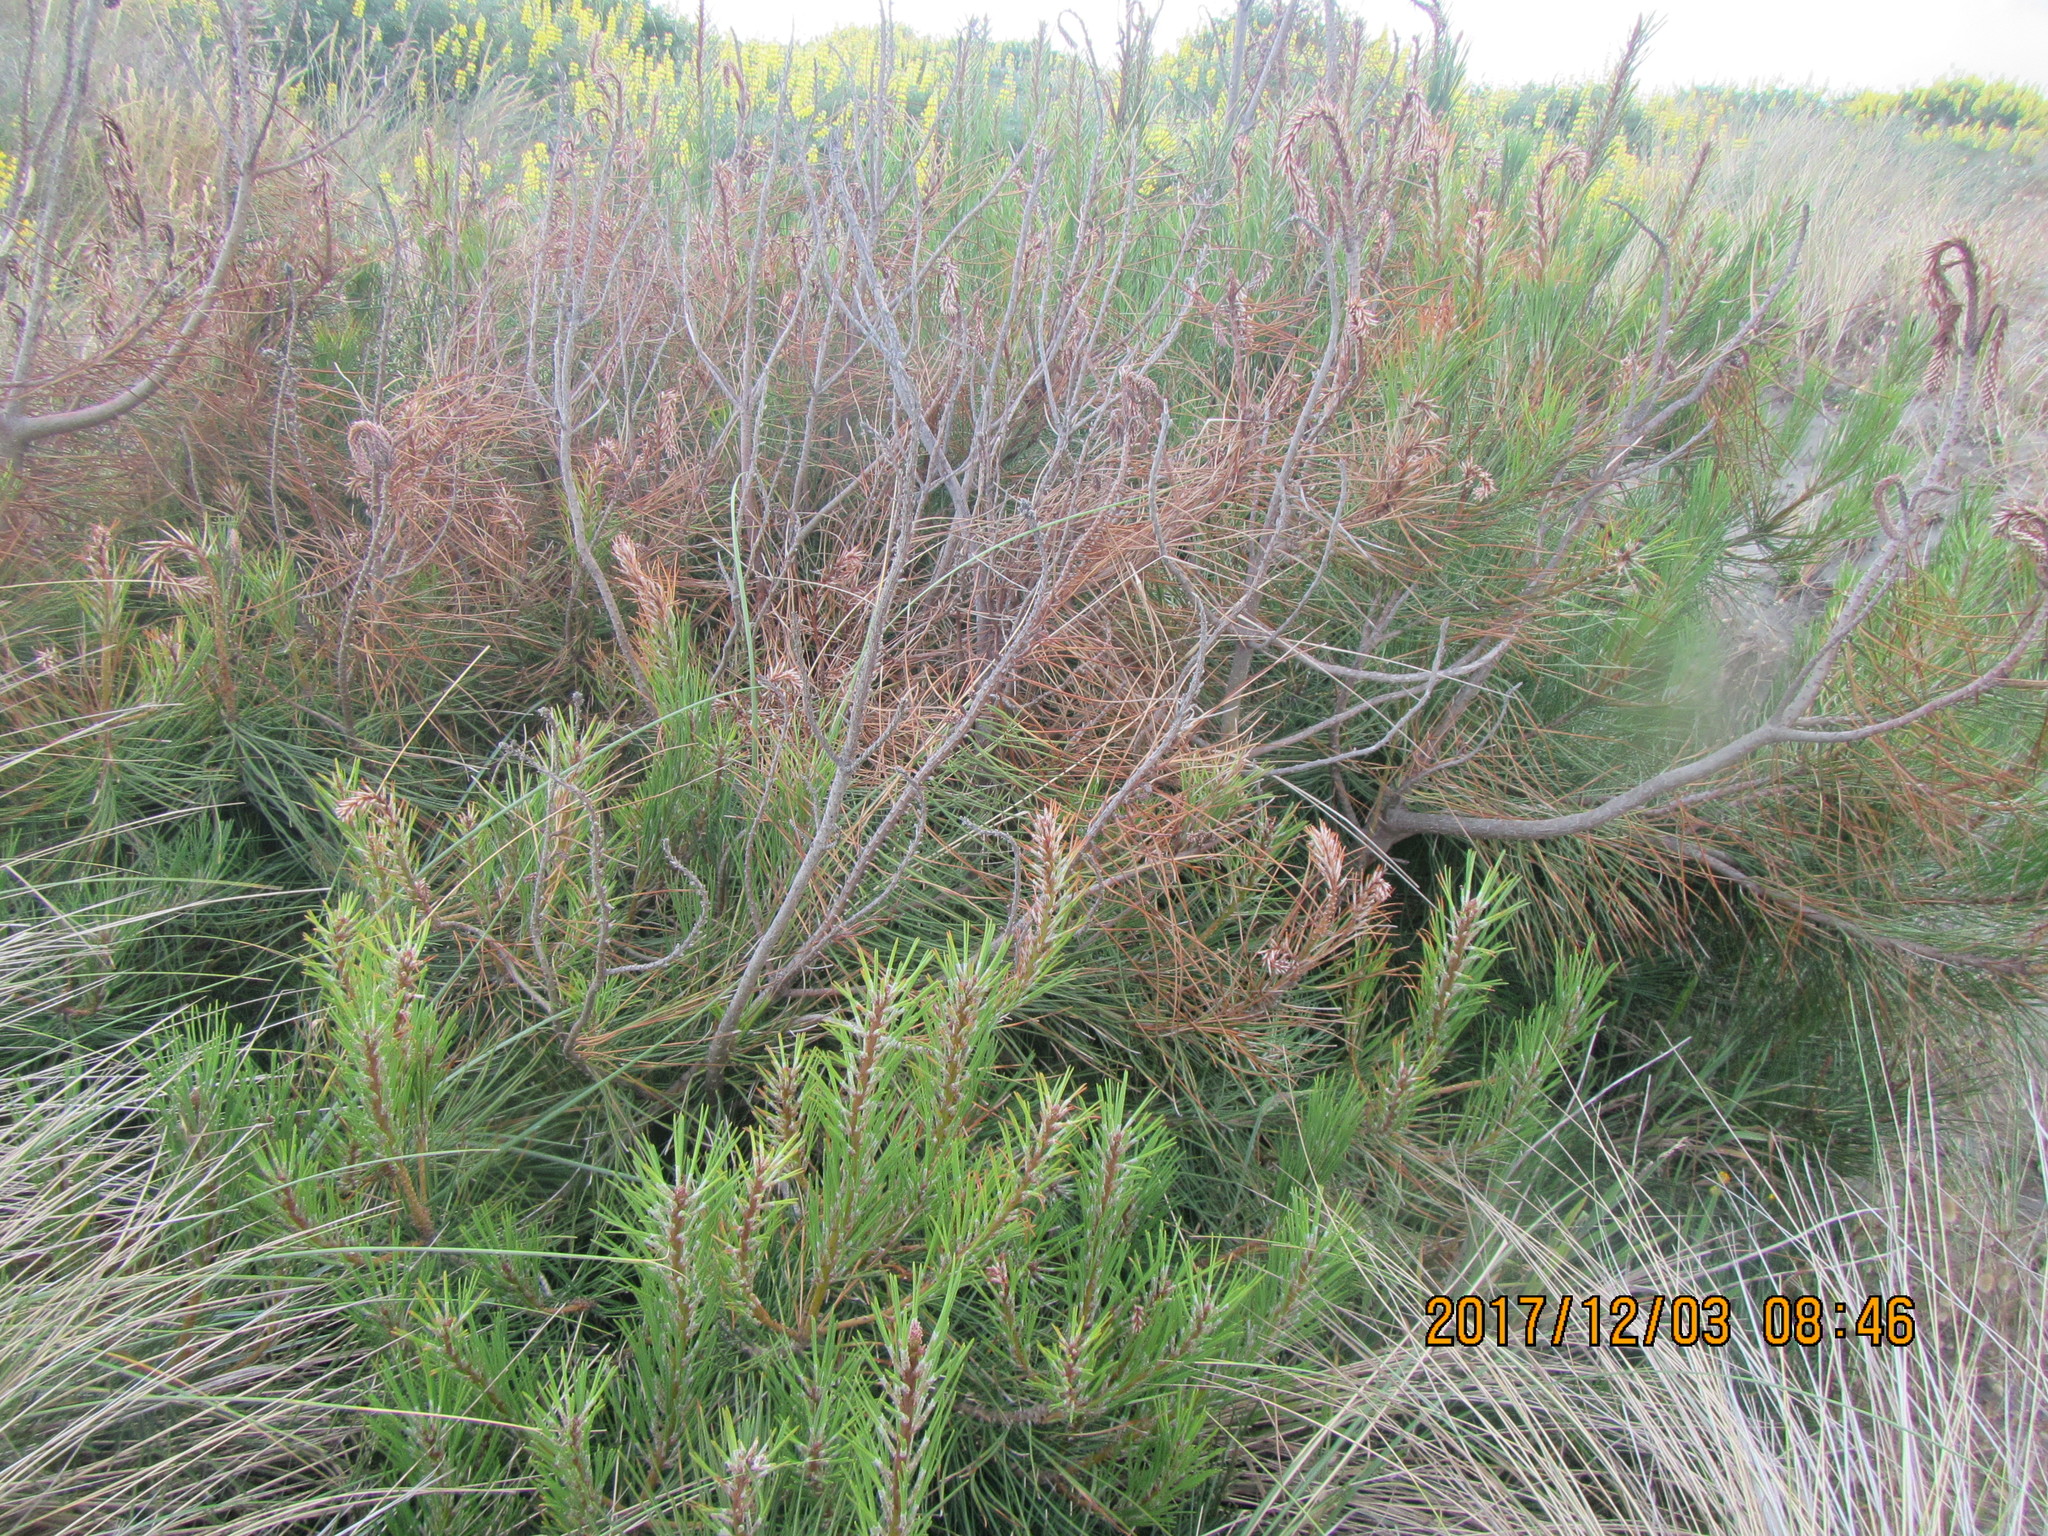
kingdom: Plantae
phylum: Tracheophyta
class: Pinopsida
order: Pinales
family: Pinaceae
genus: Pinus
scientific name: Pinus radiata
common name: Monterey pine
